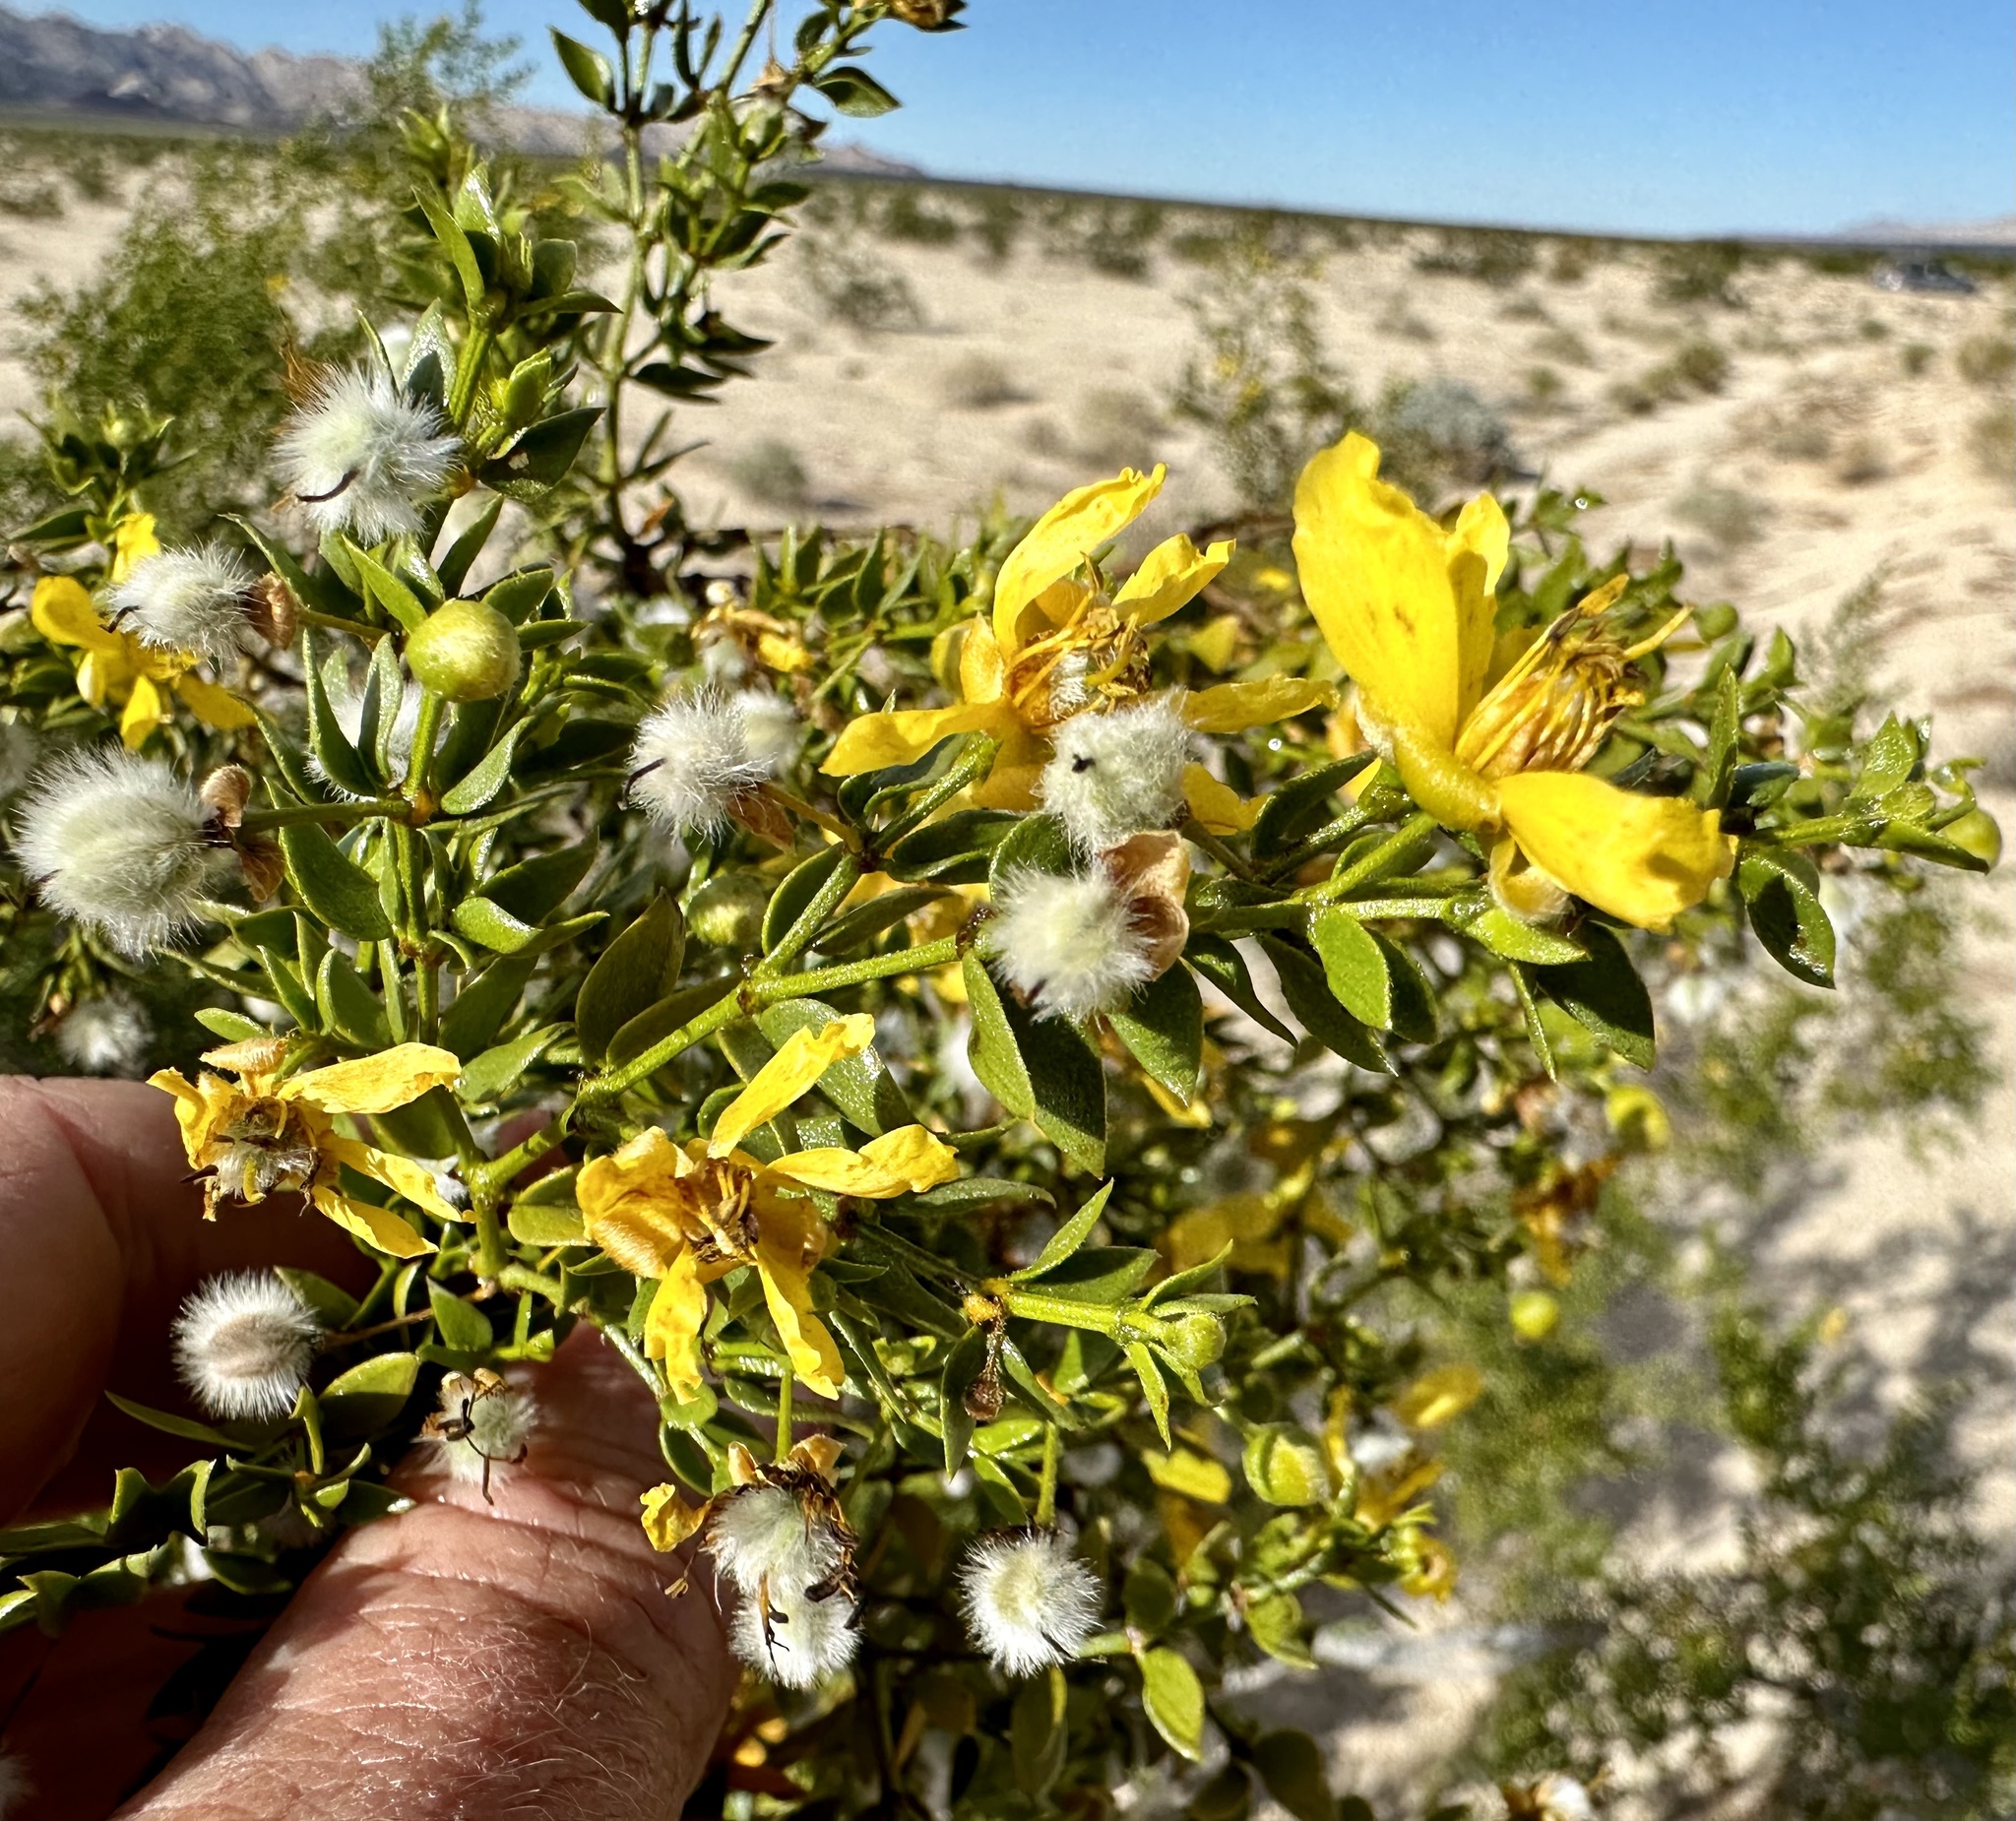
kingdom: Plantae
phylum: Tracheophyta
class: Magnoliopsida
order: Zygophyllales
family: Zygophyllaceae
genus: Larrea
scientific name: Larrea tridentata
